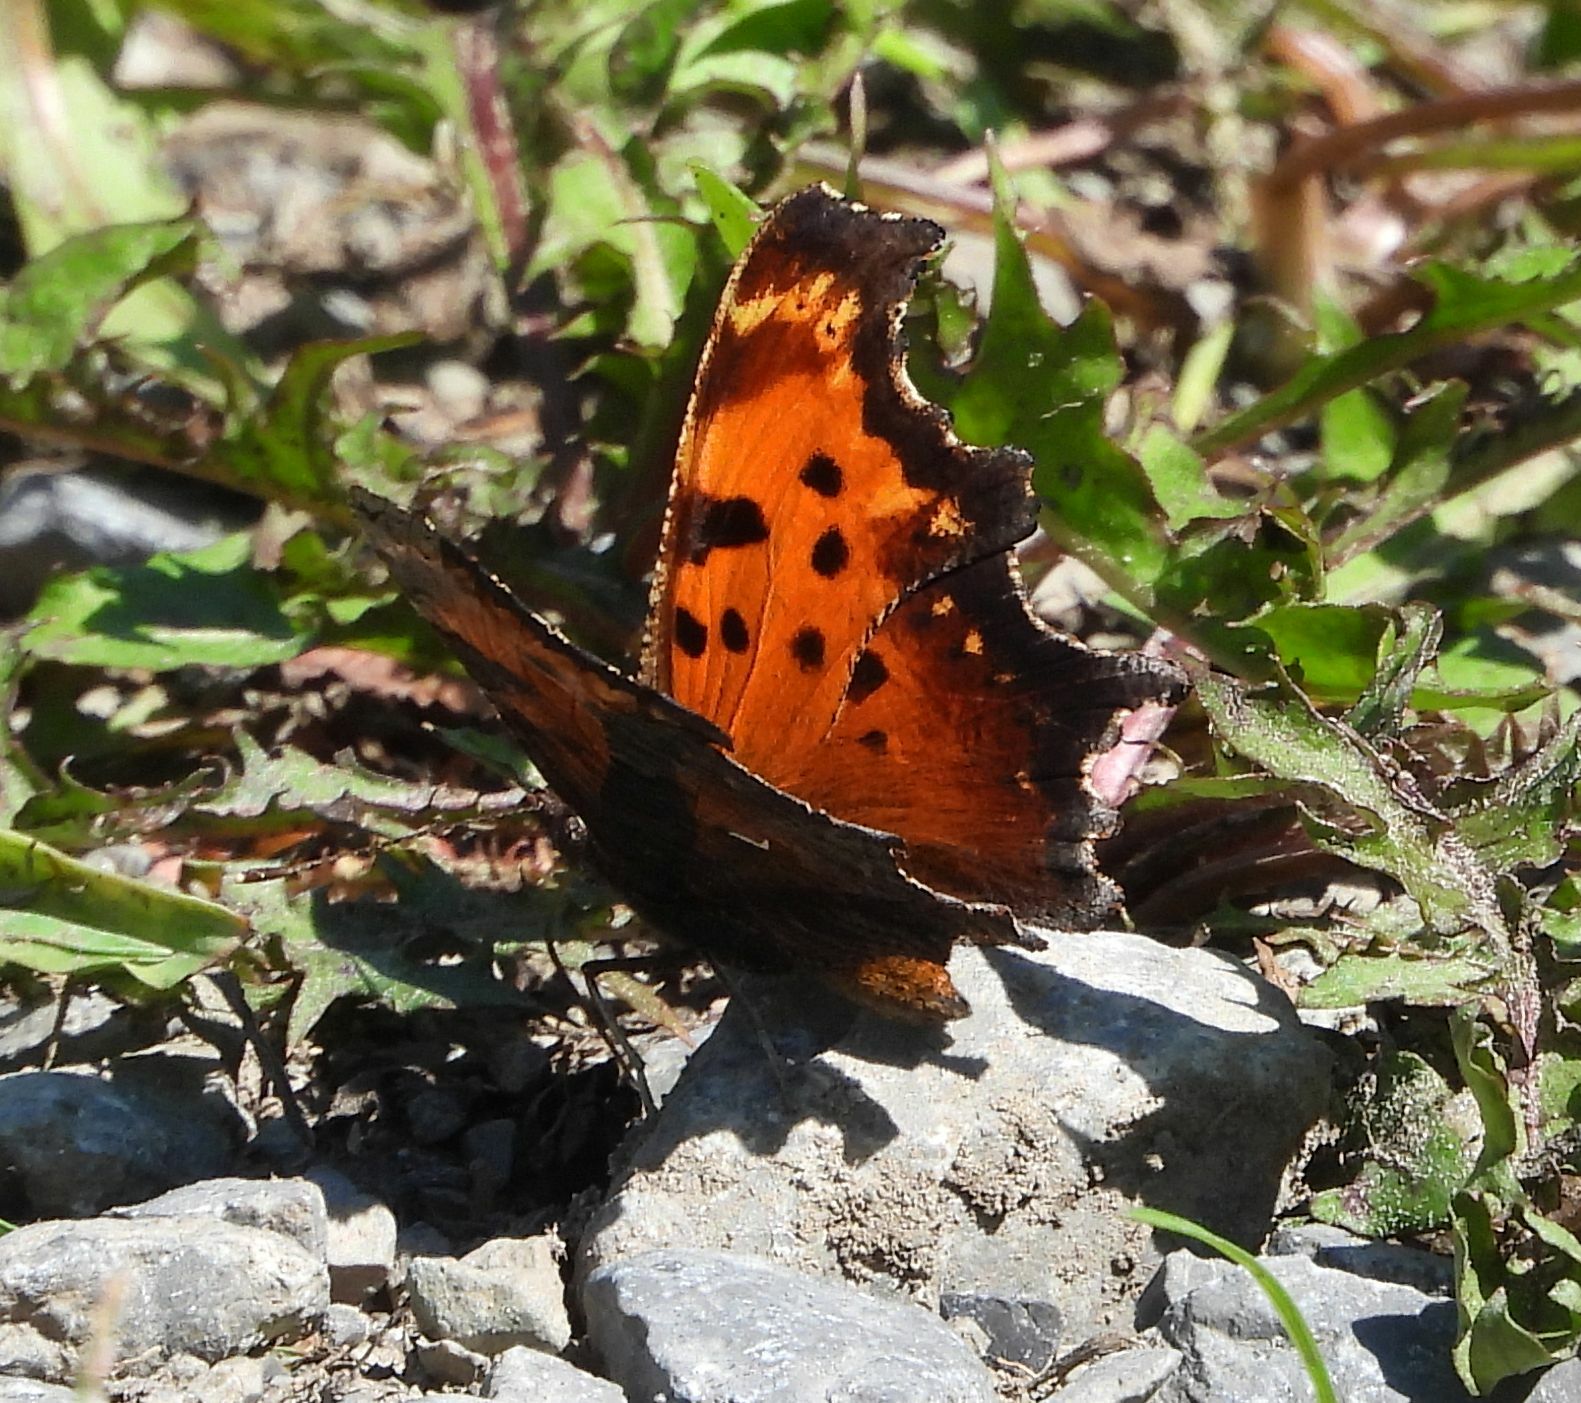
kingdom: Animalia
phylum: Arthropoda
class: Insecta
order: Lepidoptera
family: Nymphalidae
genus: Polygonia
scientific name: Polygonia progne
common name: Gray comma
